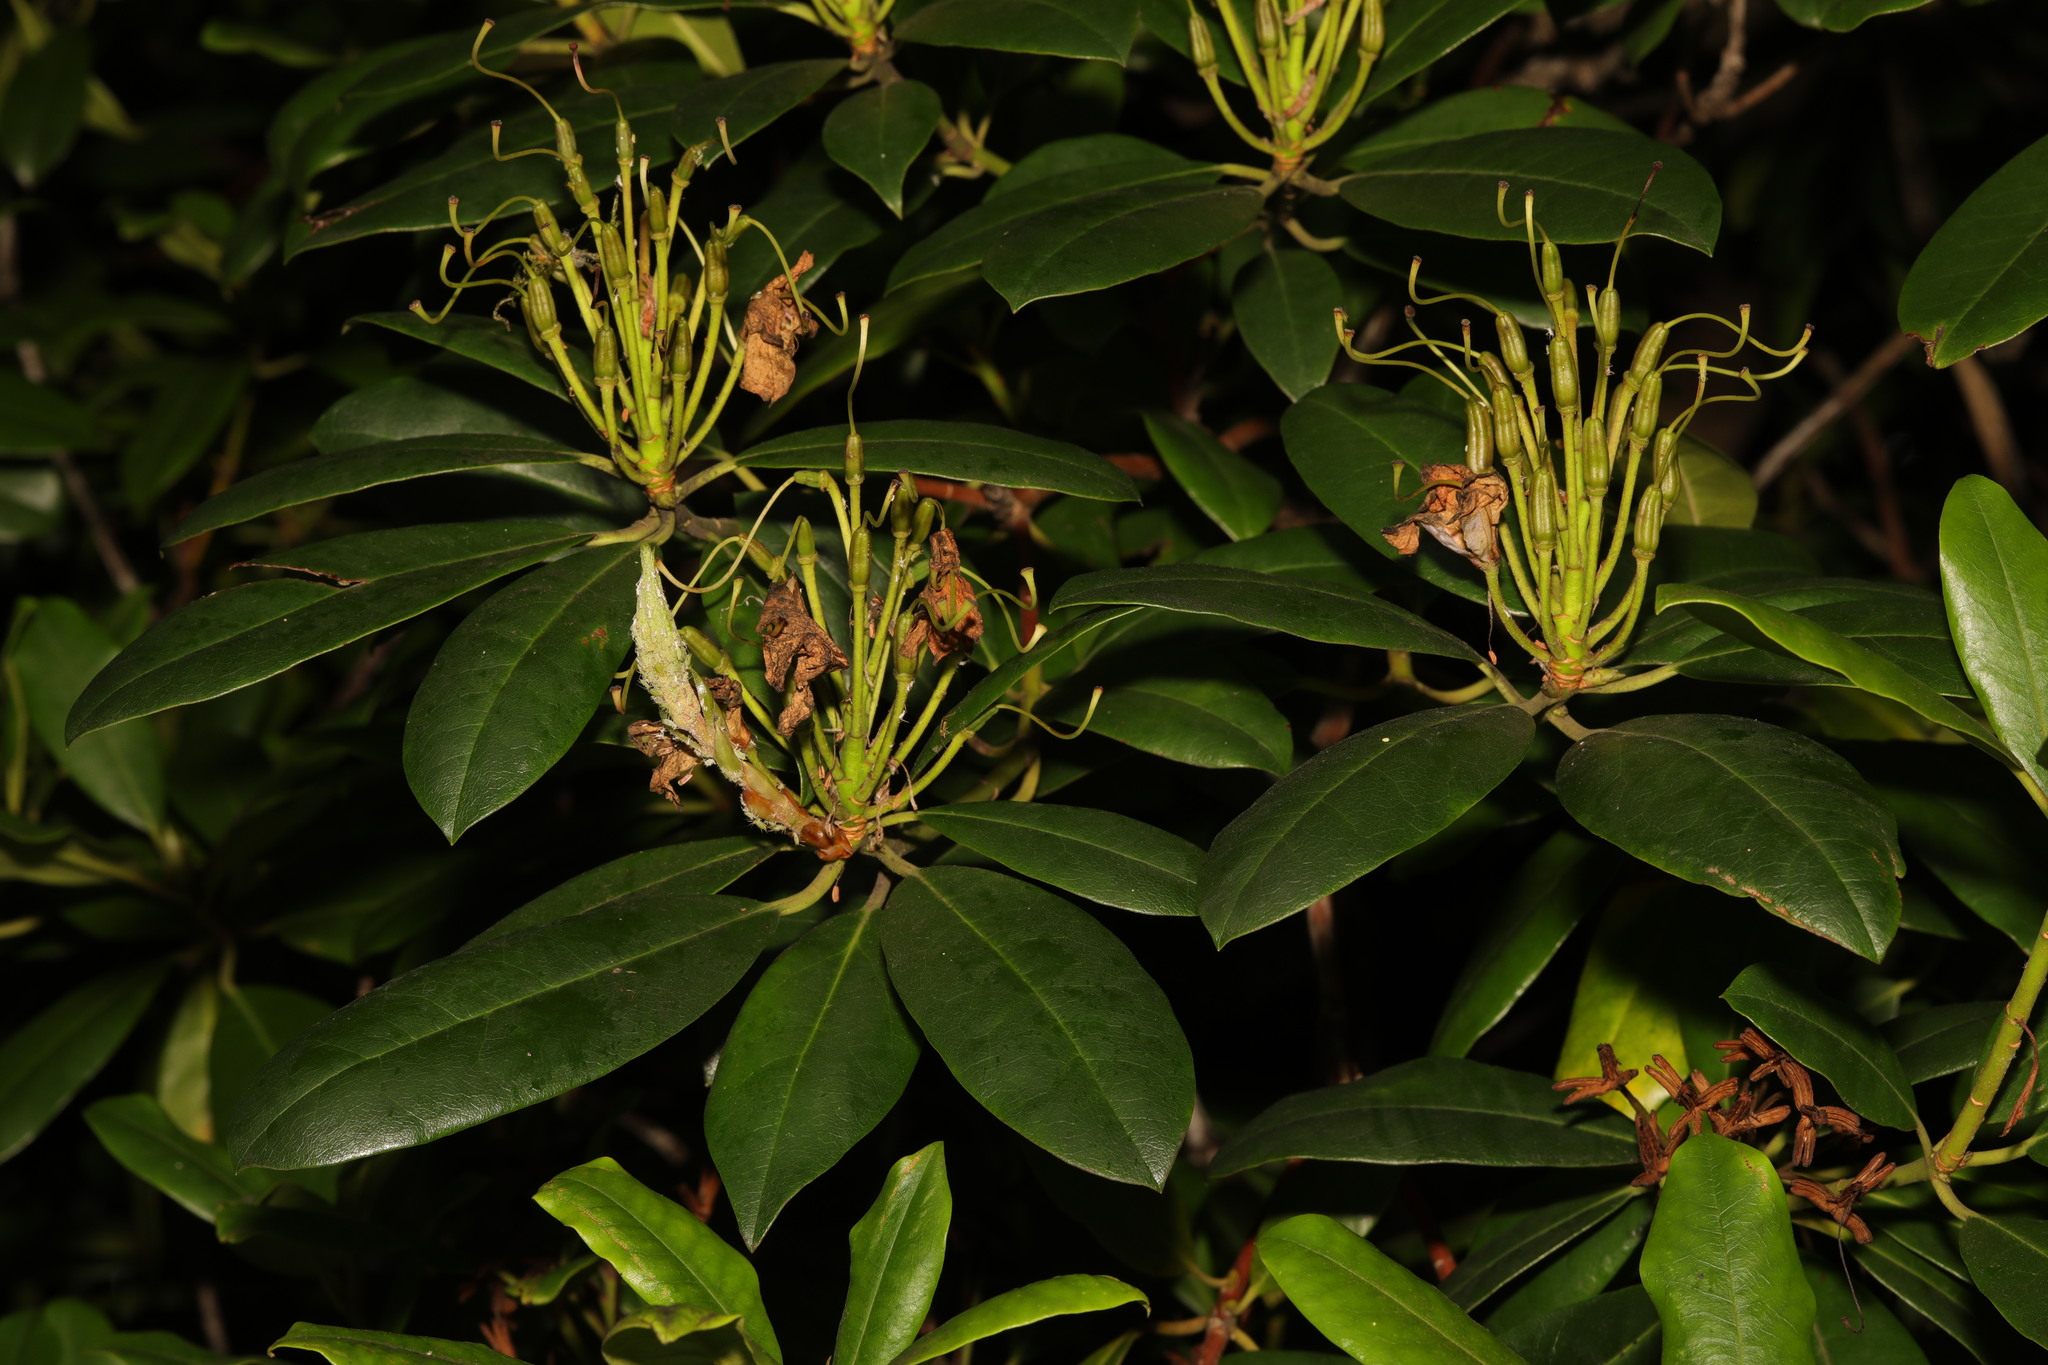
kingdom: Plantae
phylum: Tracheophyta
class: Magnoliopsida
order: Ericales
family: Ericaceae
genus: Rhododendron
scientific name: Rhododendron ponticum
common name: Rhododendron
